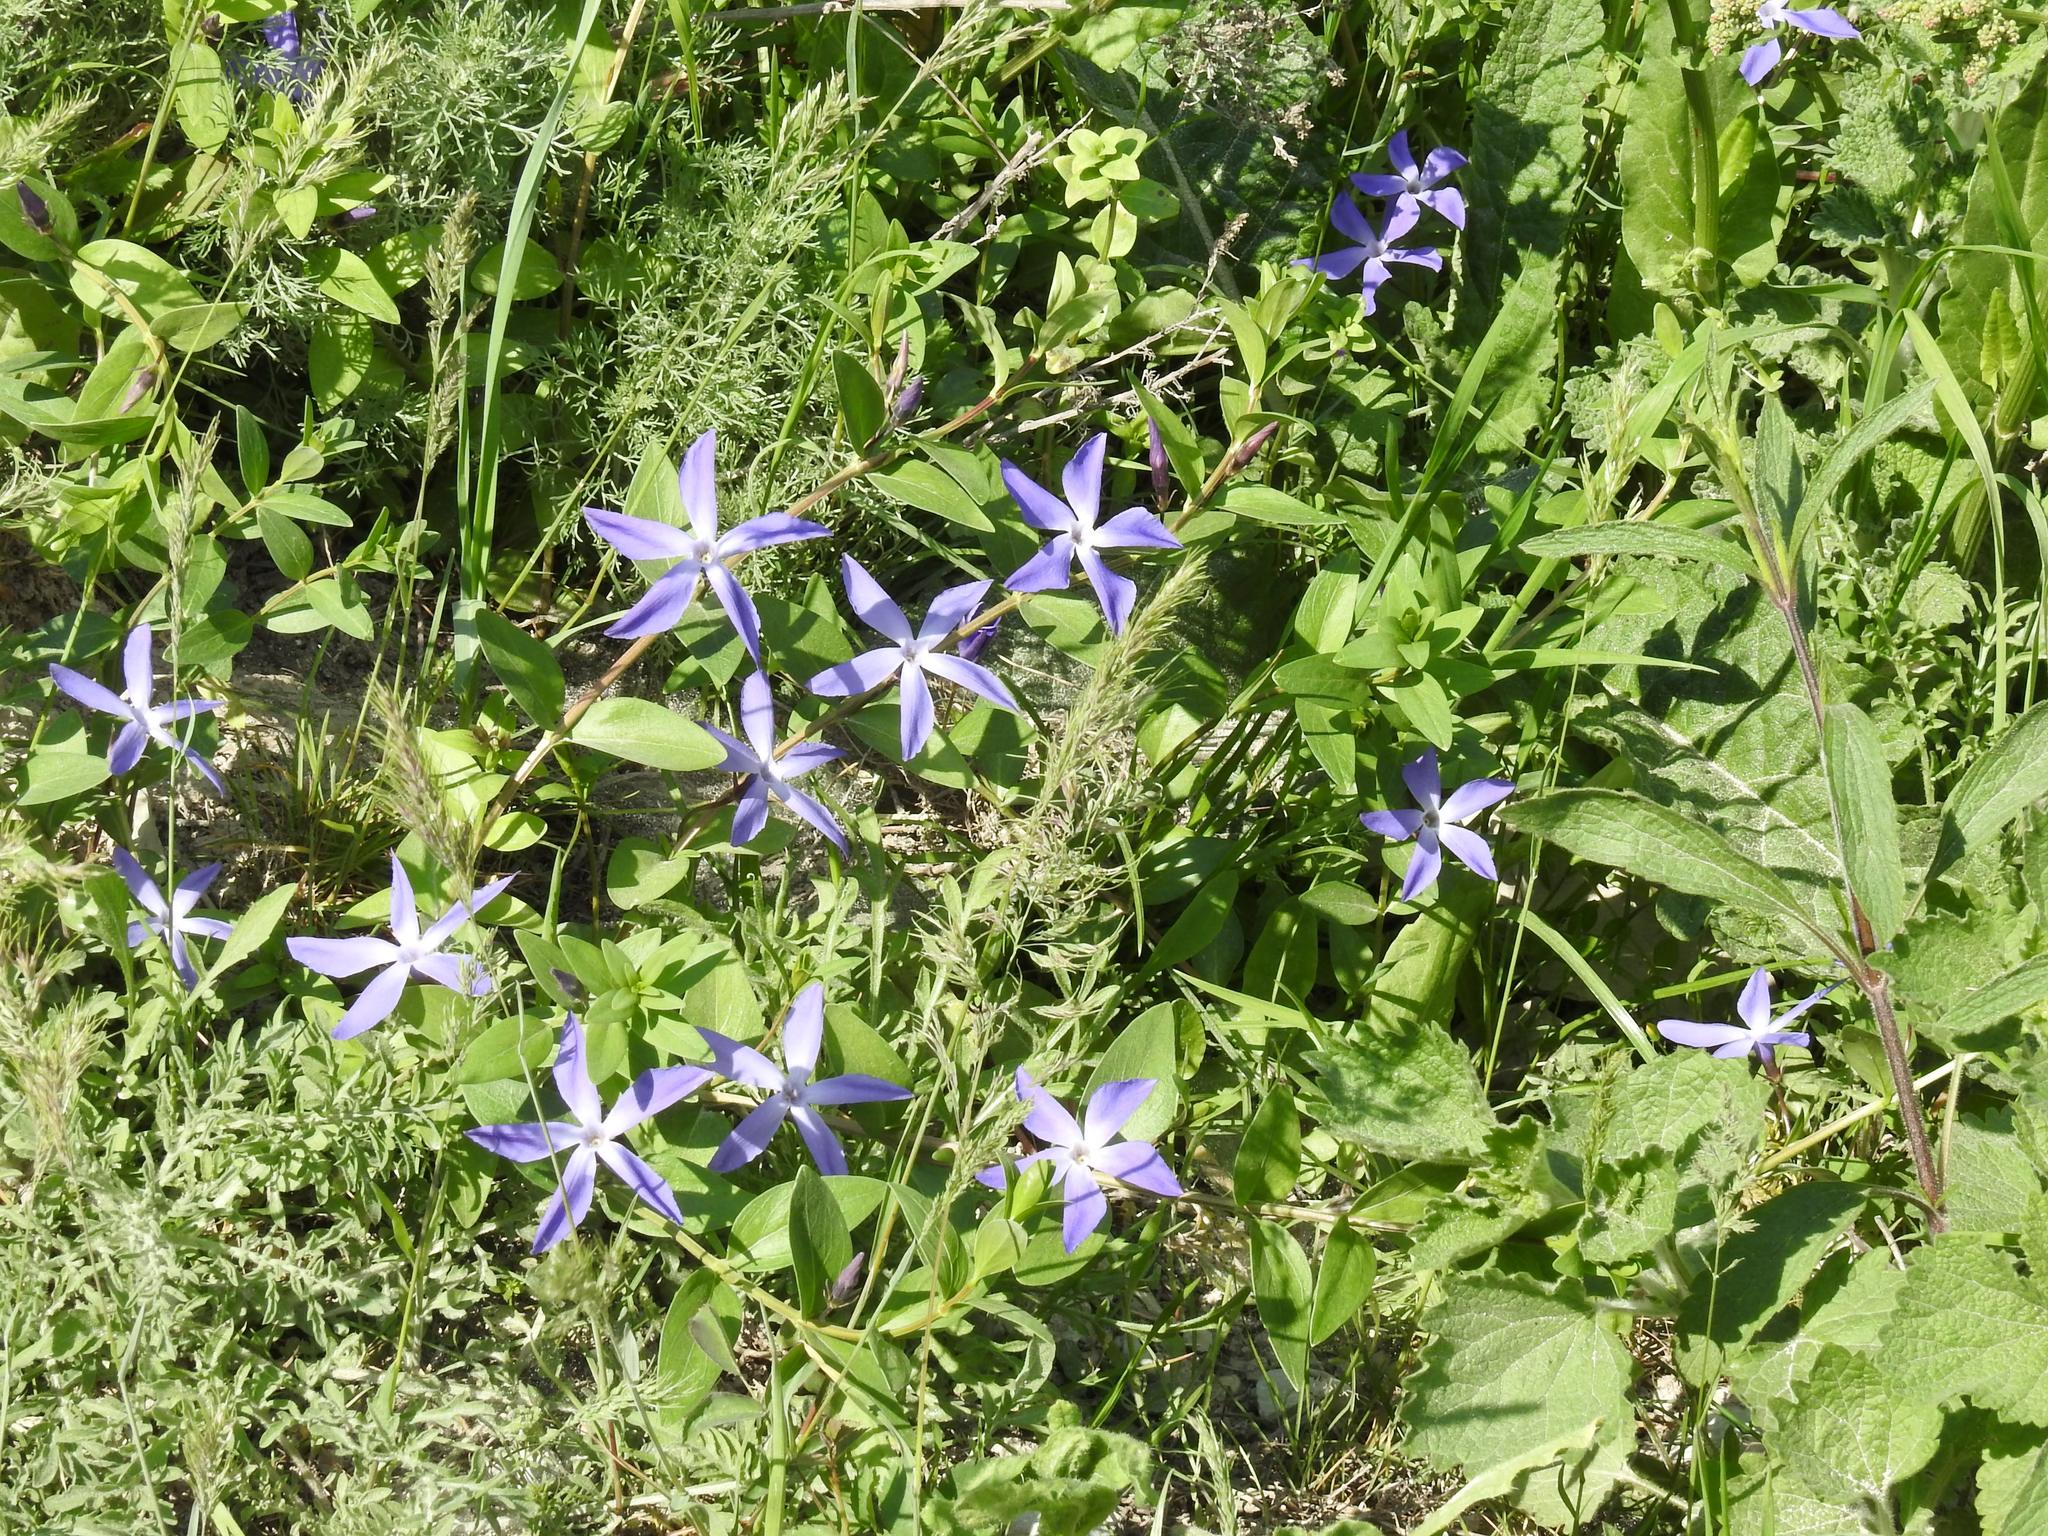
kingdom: Plantae
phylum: Tracheophyta
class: Magnoliopsida
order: Gentianales
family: Apocynaceae
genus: Vinca
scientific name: Vinca herbacea
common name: Herbaceous periwinkle
